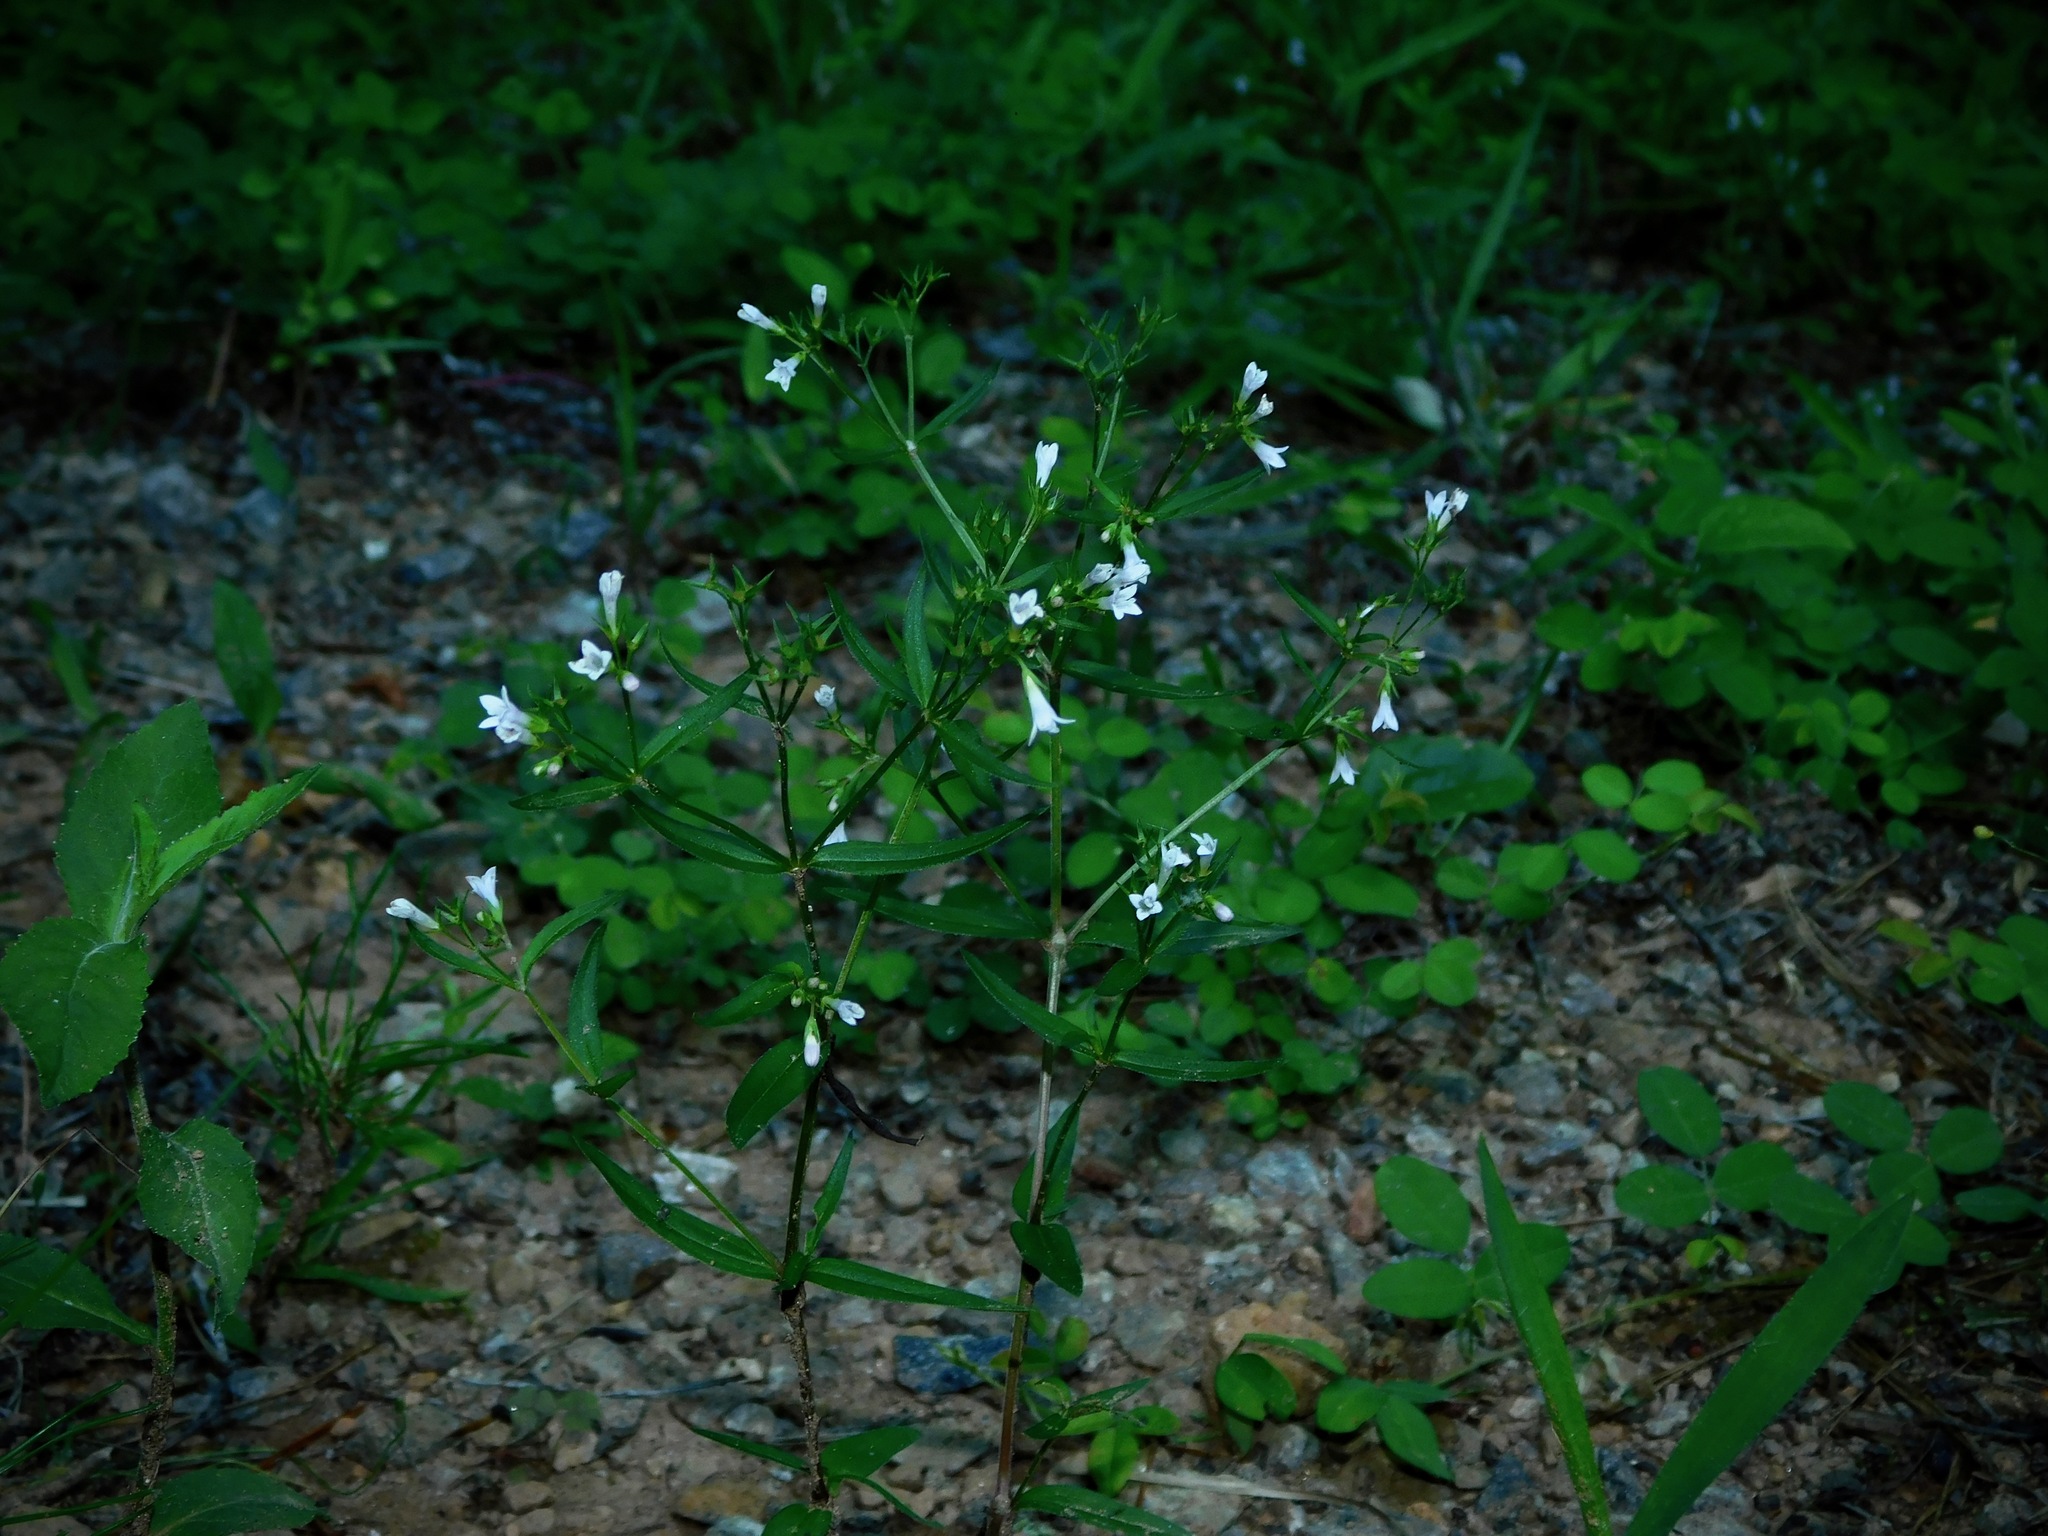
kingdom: Plantae
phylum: Tracheophyta
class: Magnoliopsida
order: Gentianales
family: Rubiaceae
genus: Houstonia
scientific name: Houstonia purpurea
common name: Summer bluet
